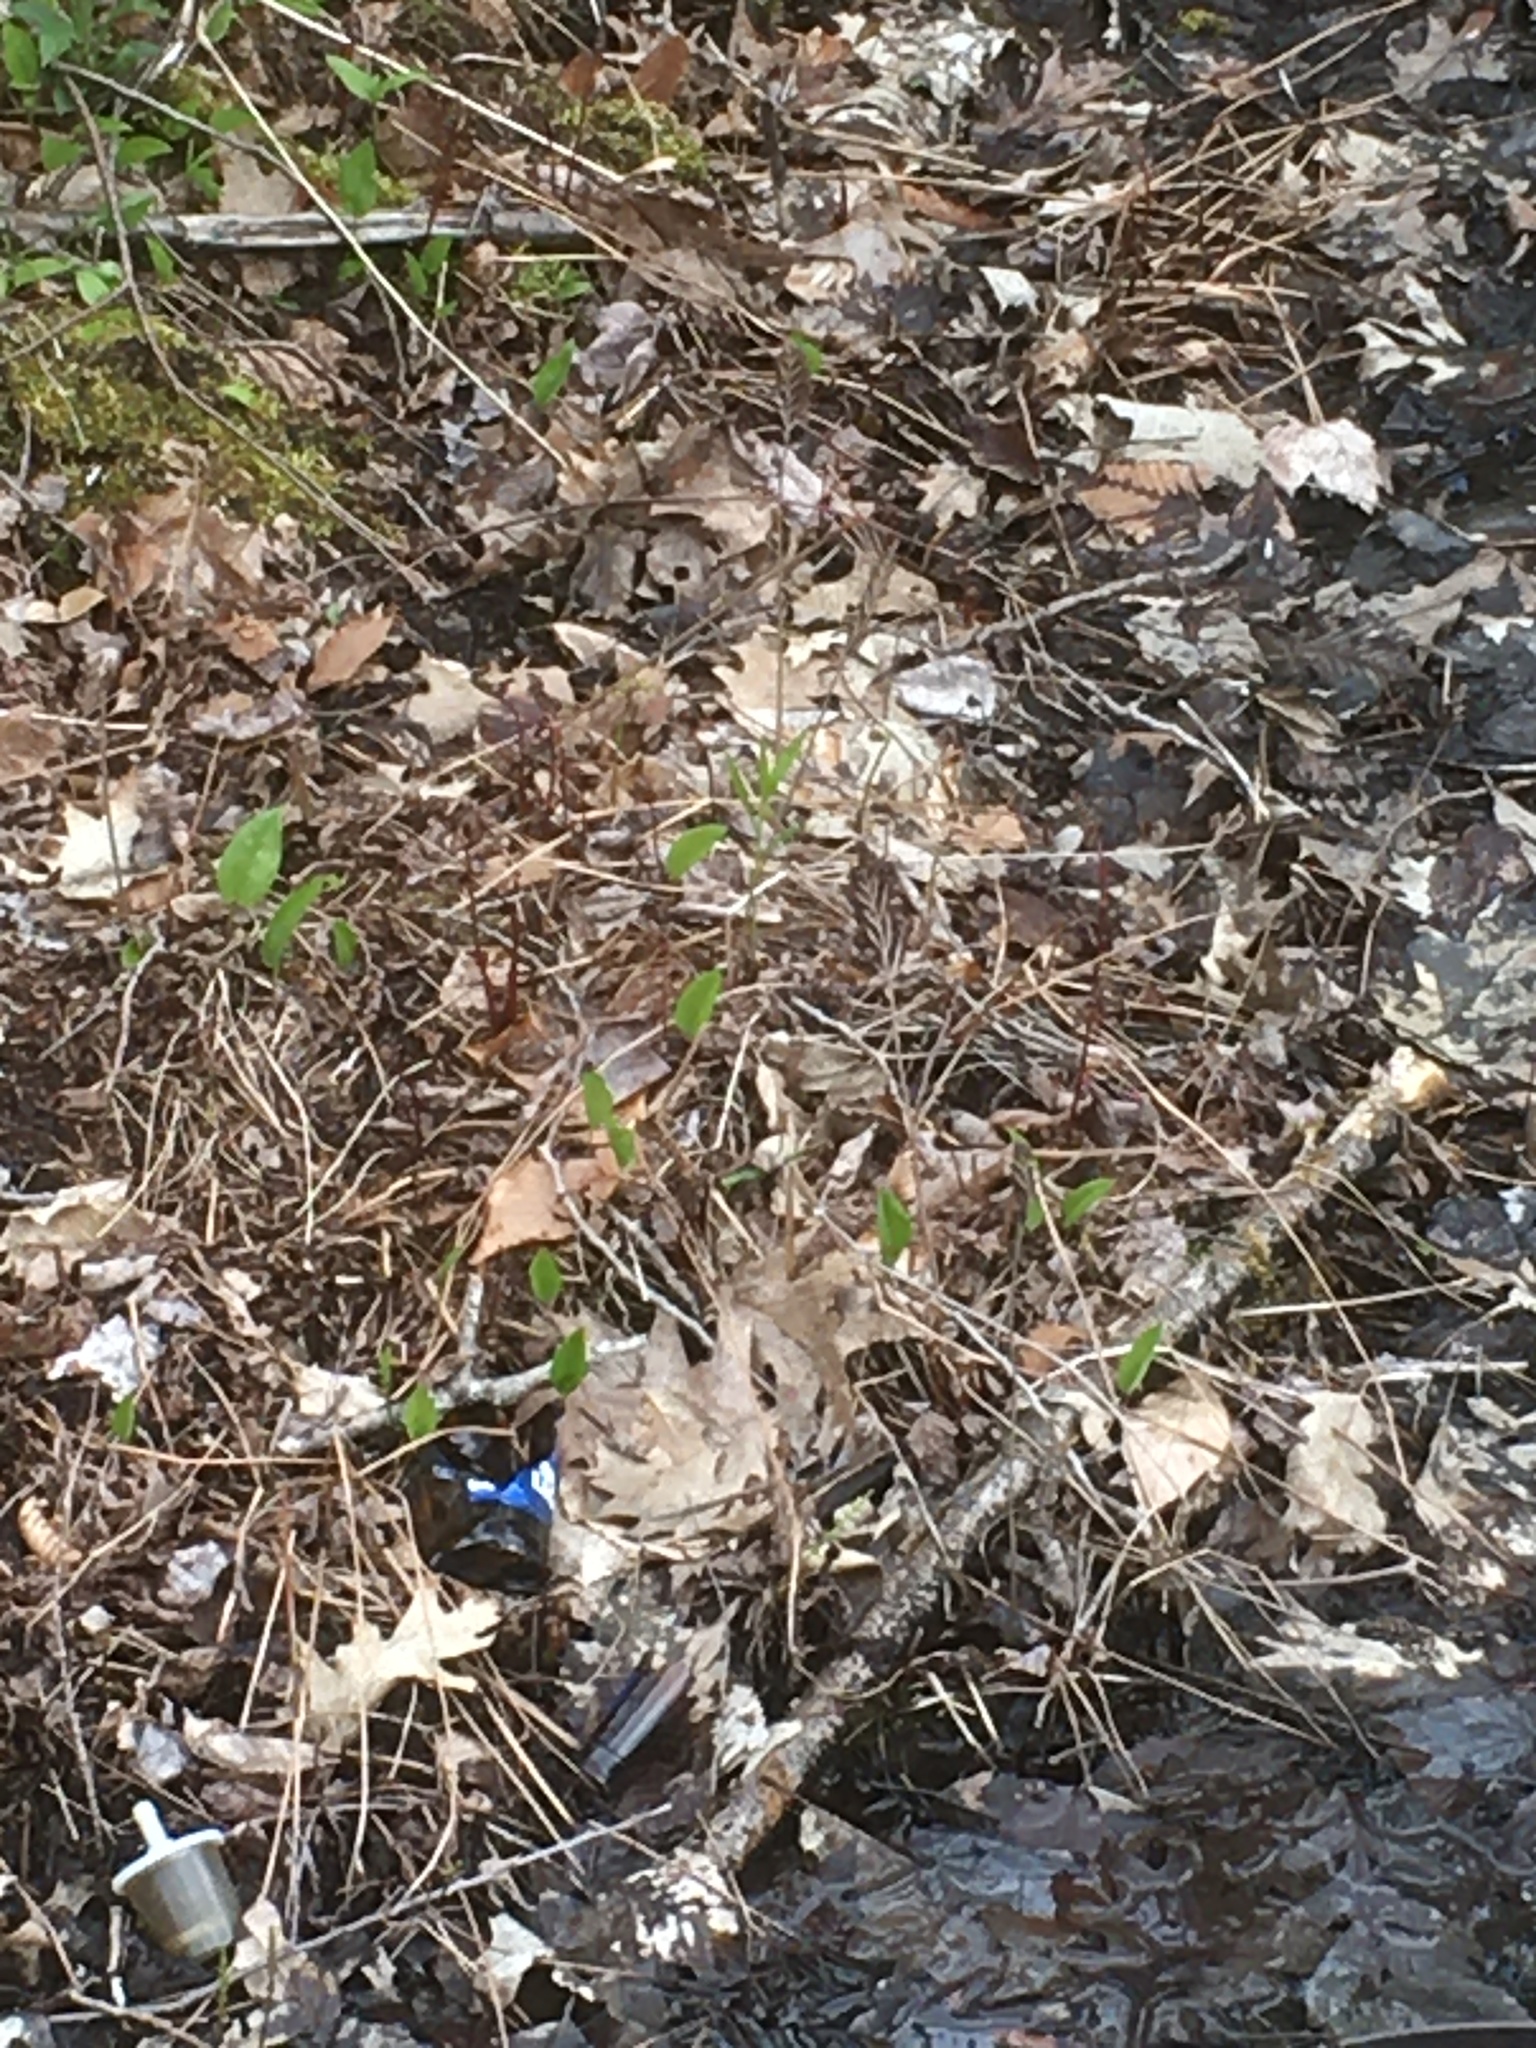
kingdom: Plantae
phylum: Tracheophyta
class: Polypodiopsida
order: Polypodiales
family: Onocleaceae
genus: Onoclea
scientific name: Onoclea sensibilis
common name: Sensitive fern
